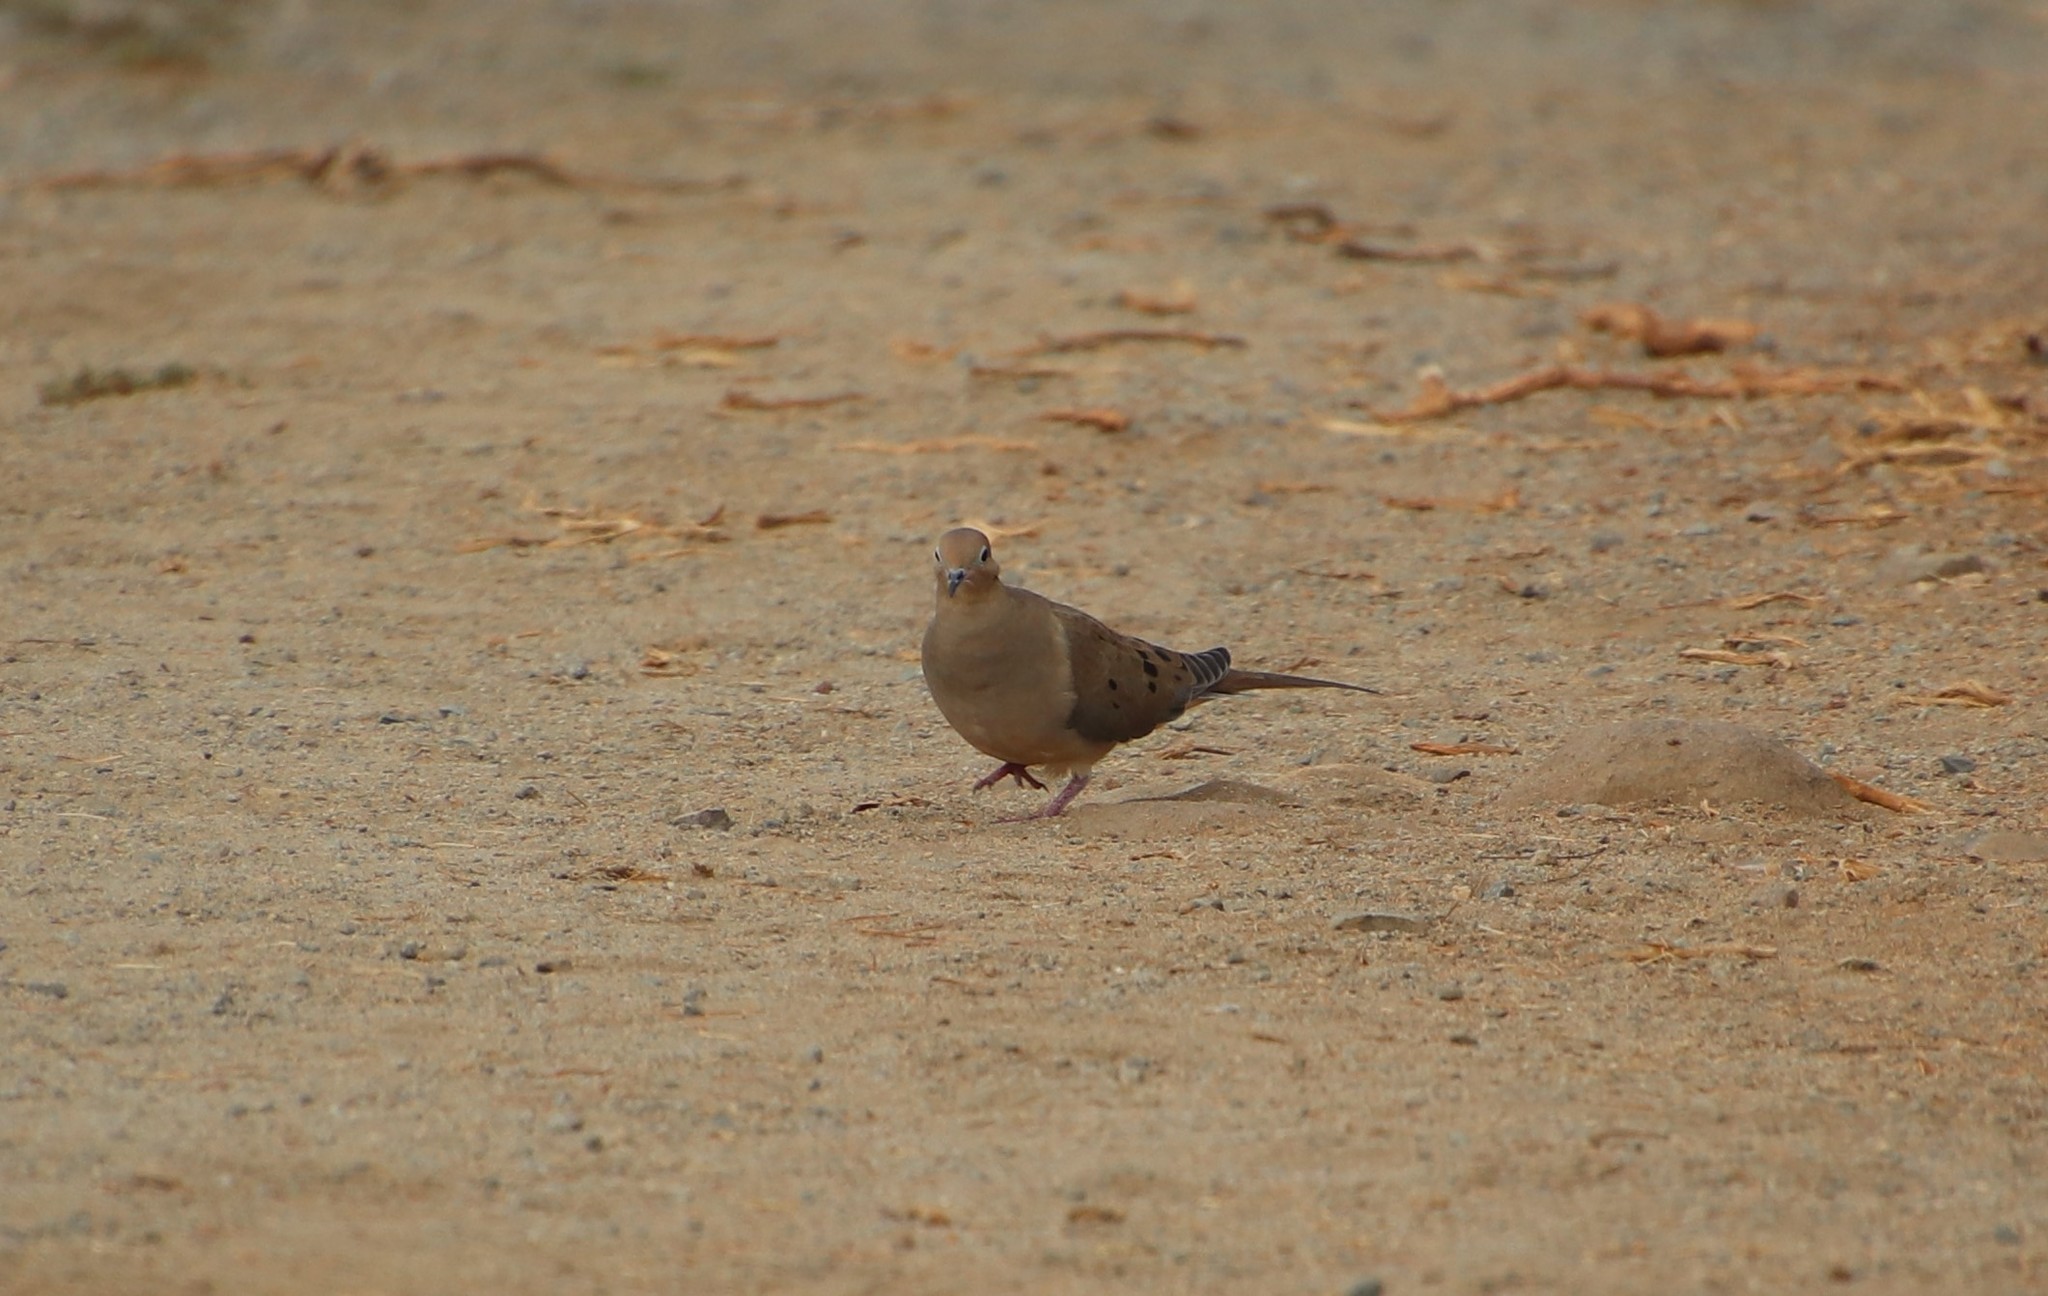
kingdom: Animalia
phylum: Chordata
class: Aves
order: Columbiformes
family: Columbidae
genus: Zenaida
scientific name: Zenaida macroura
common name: Mourning dove
